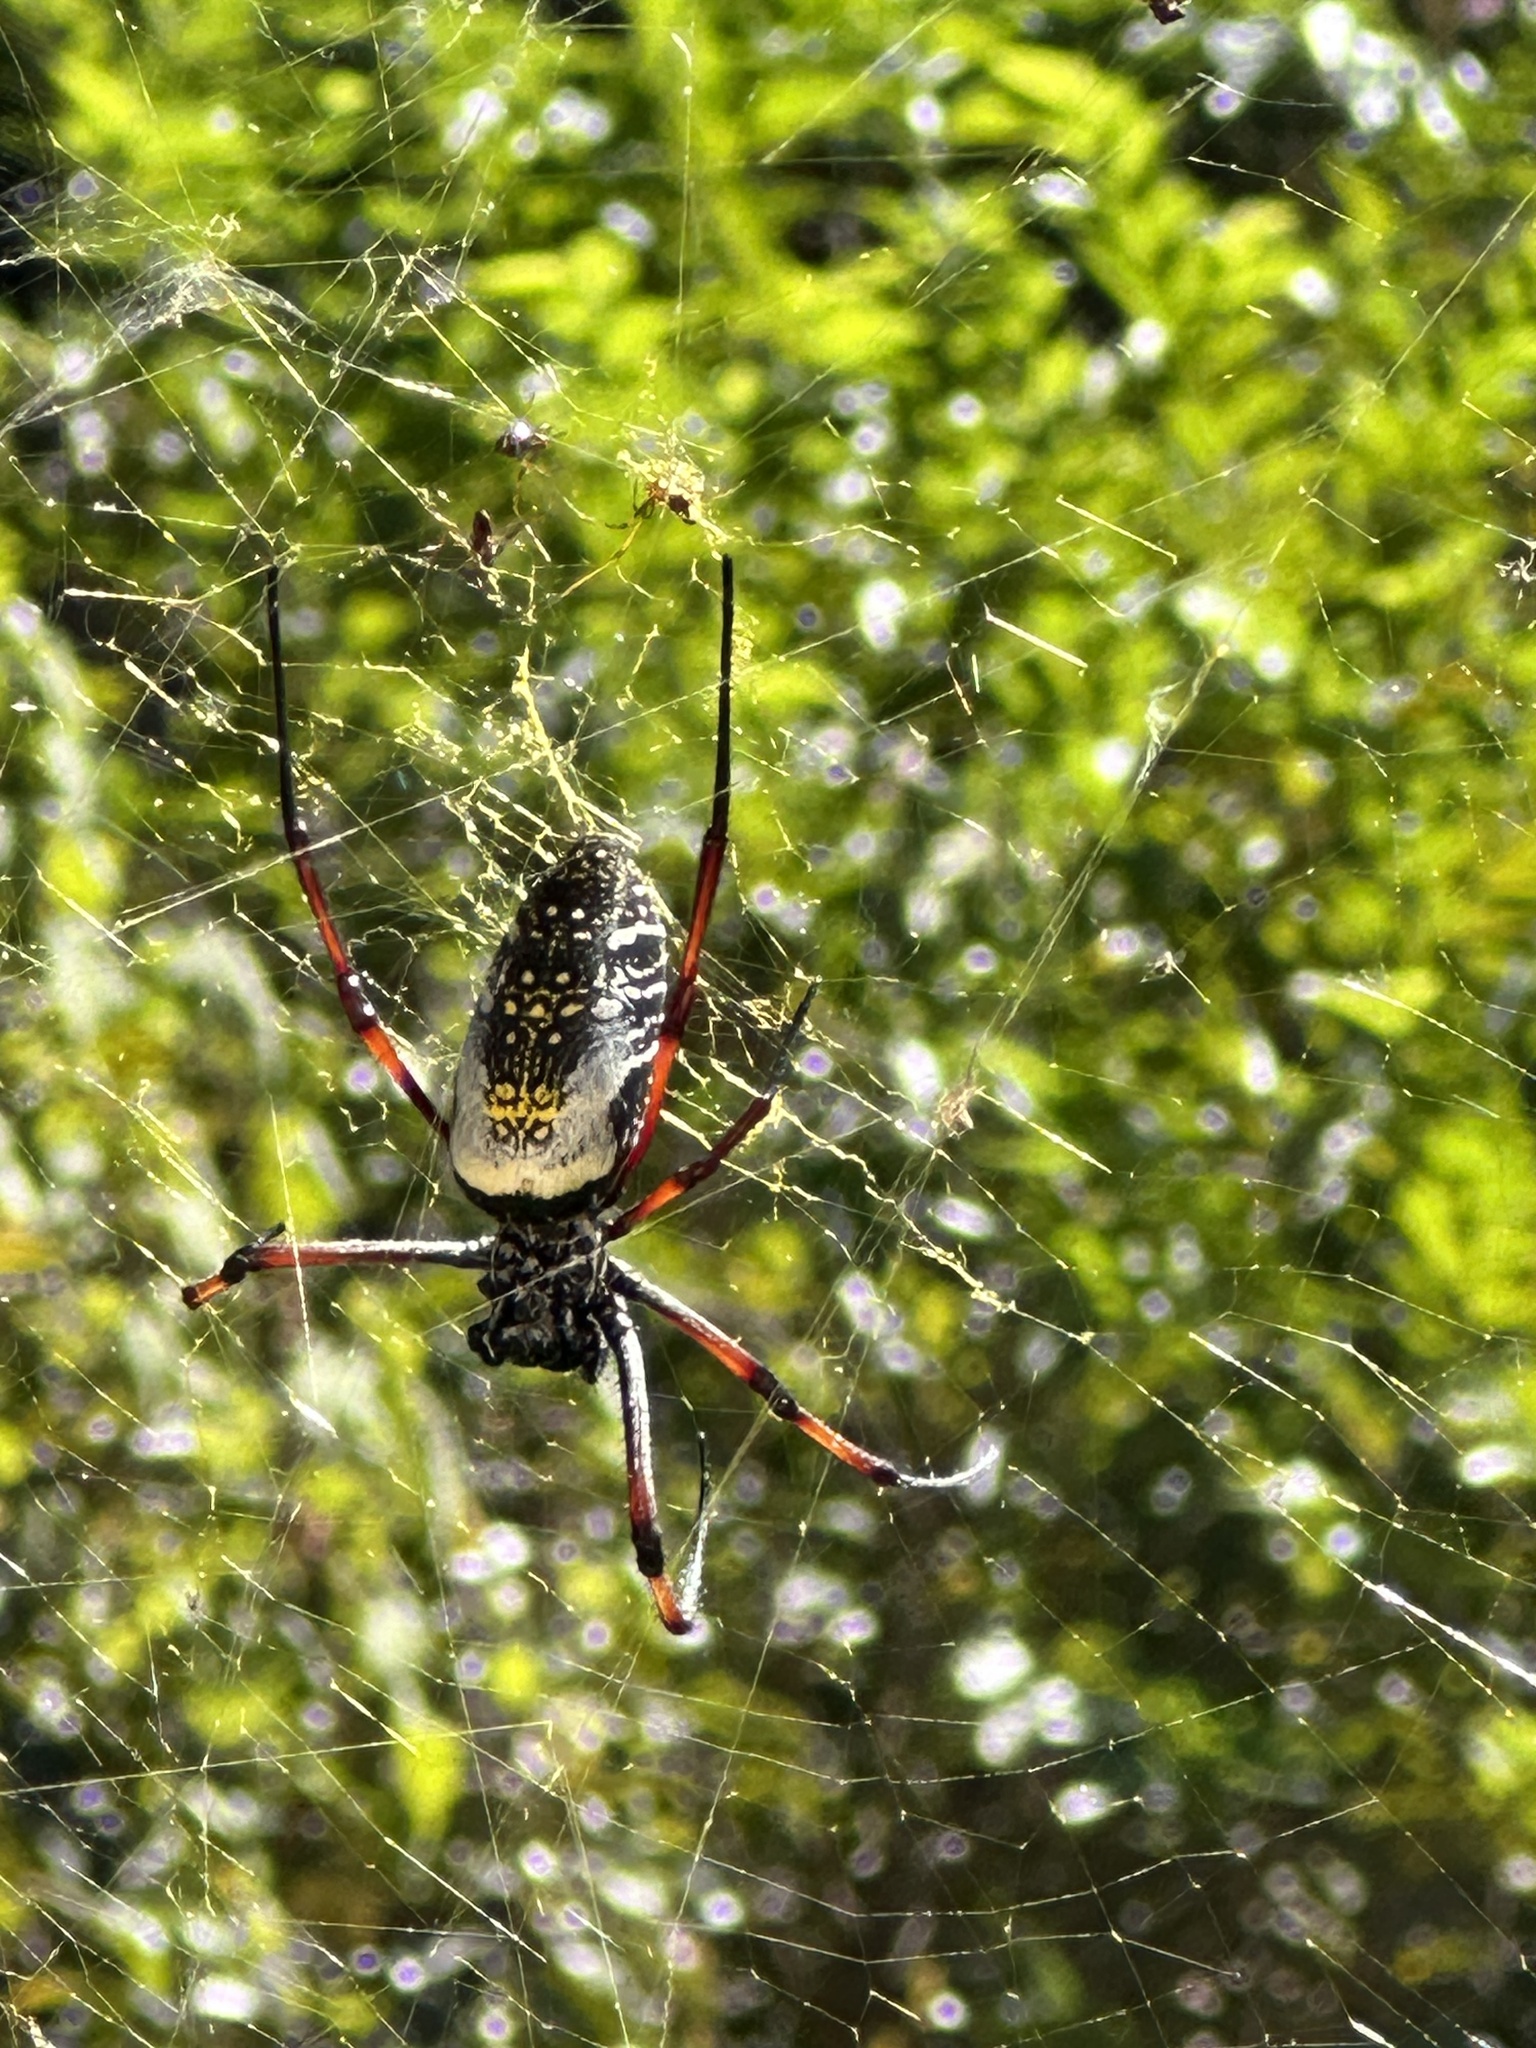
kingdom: Animalia
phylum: Arthropoda
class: Arachnida
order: Araneae
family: Araneidae
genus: Trichonephila
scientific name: Trichonephila inaurata
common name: Red-legged golden orb weaver
